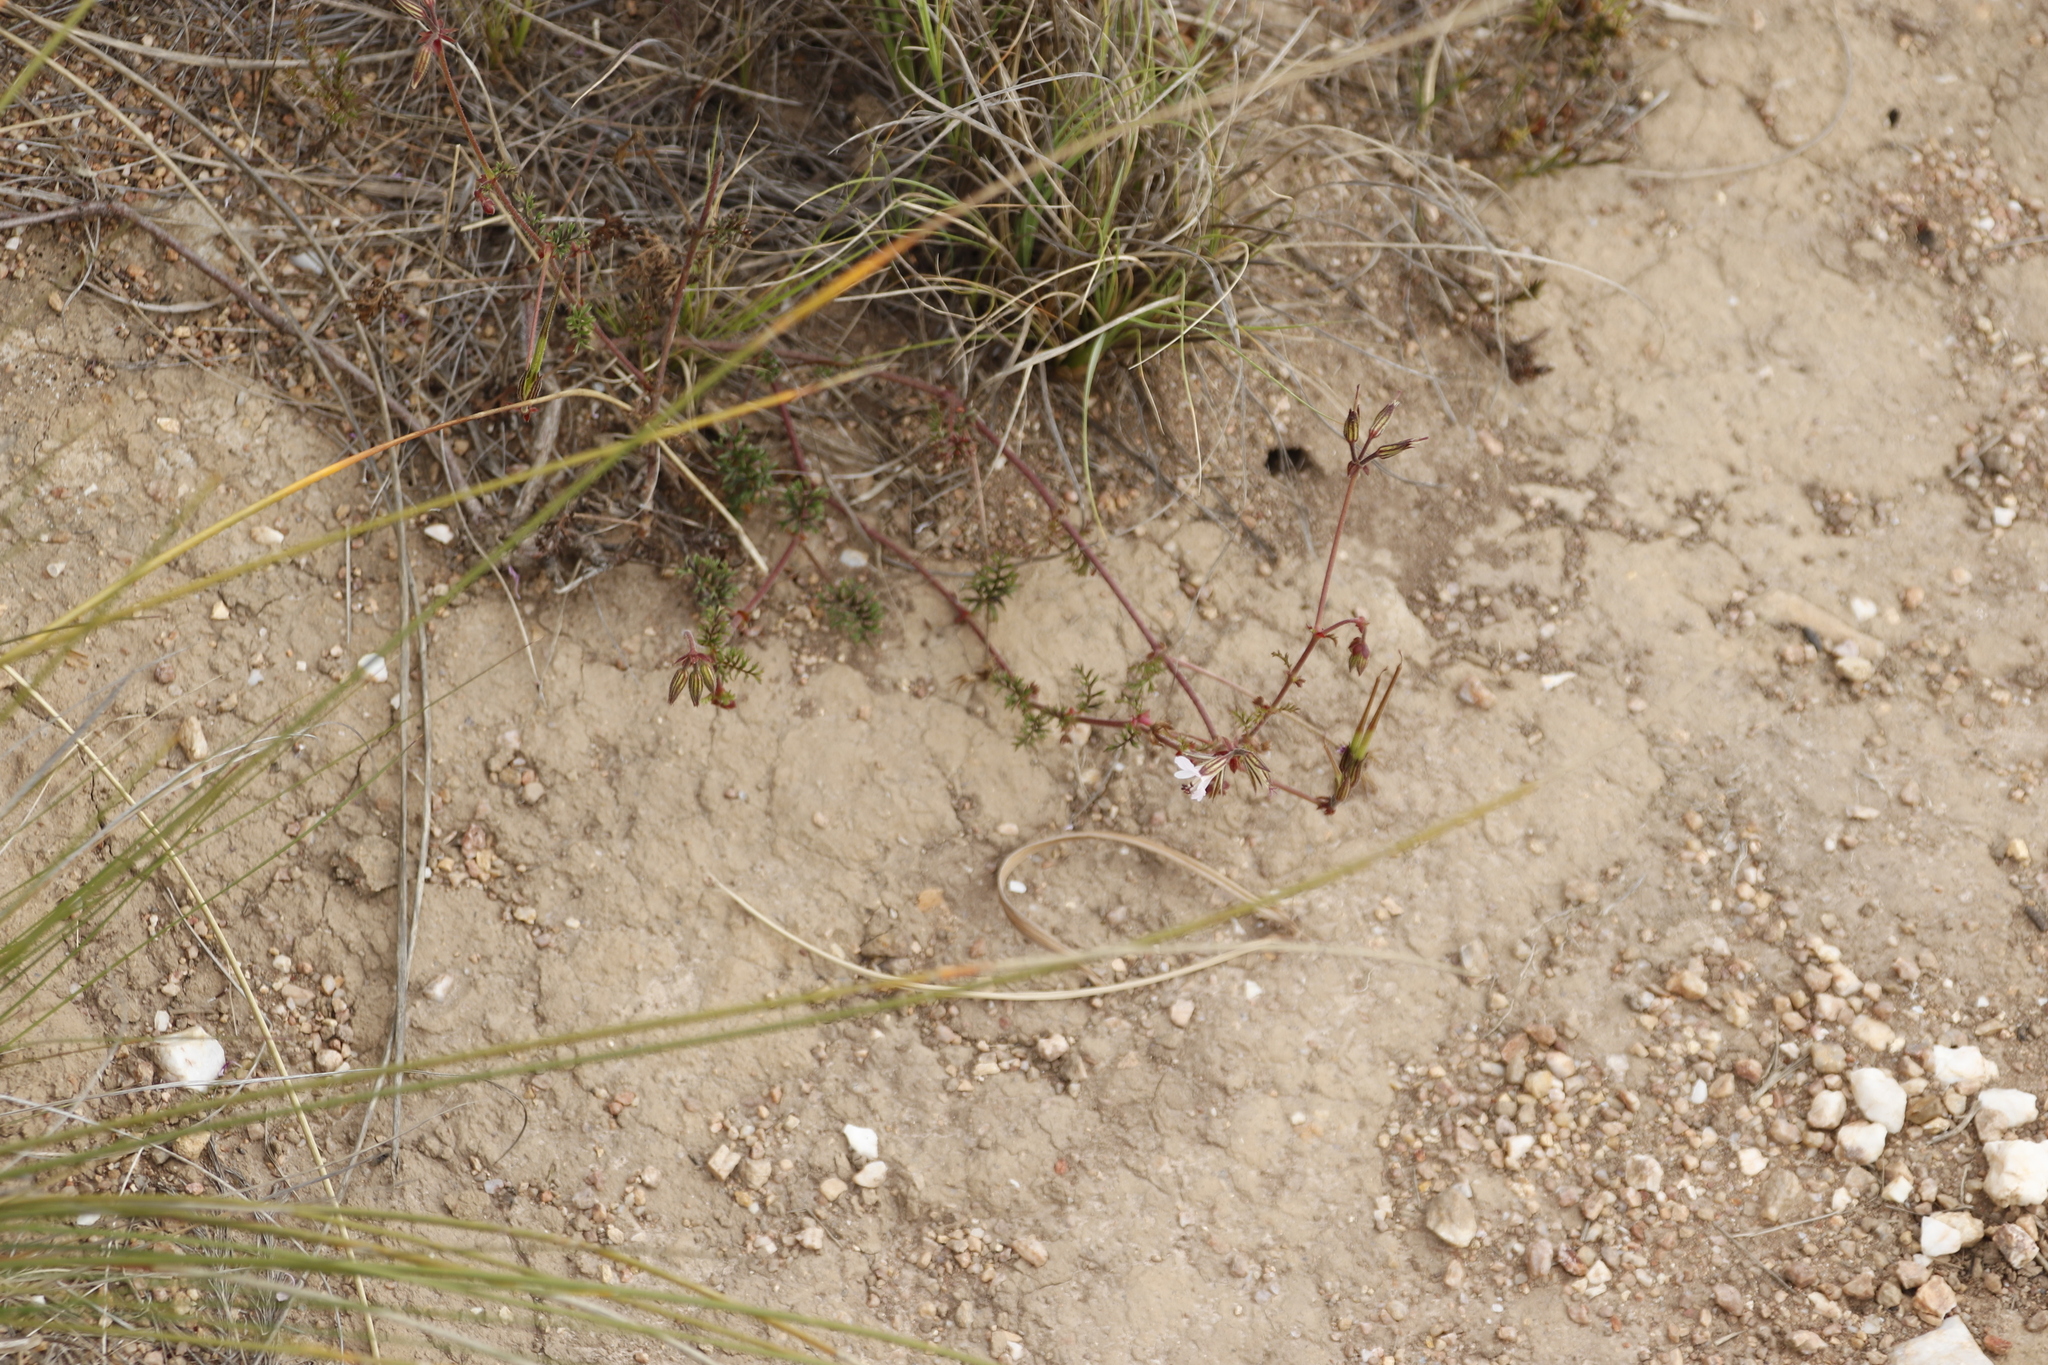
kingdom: Plantae
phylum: Tracheophyta
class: Magnoliopsida
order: Geraniales
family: Geraniaceae
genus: Pelargonium
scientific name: Pelargonium myrrhifolium
